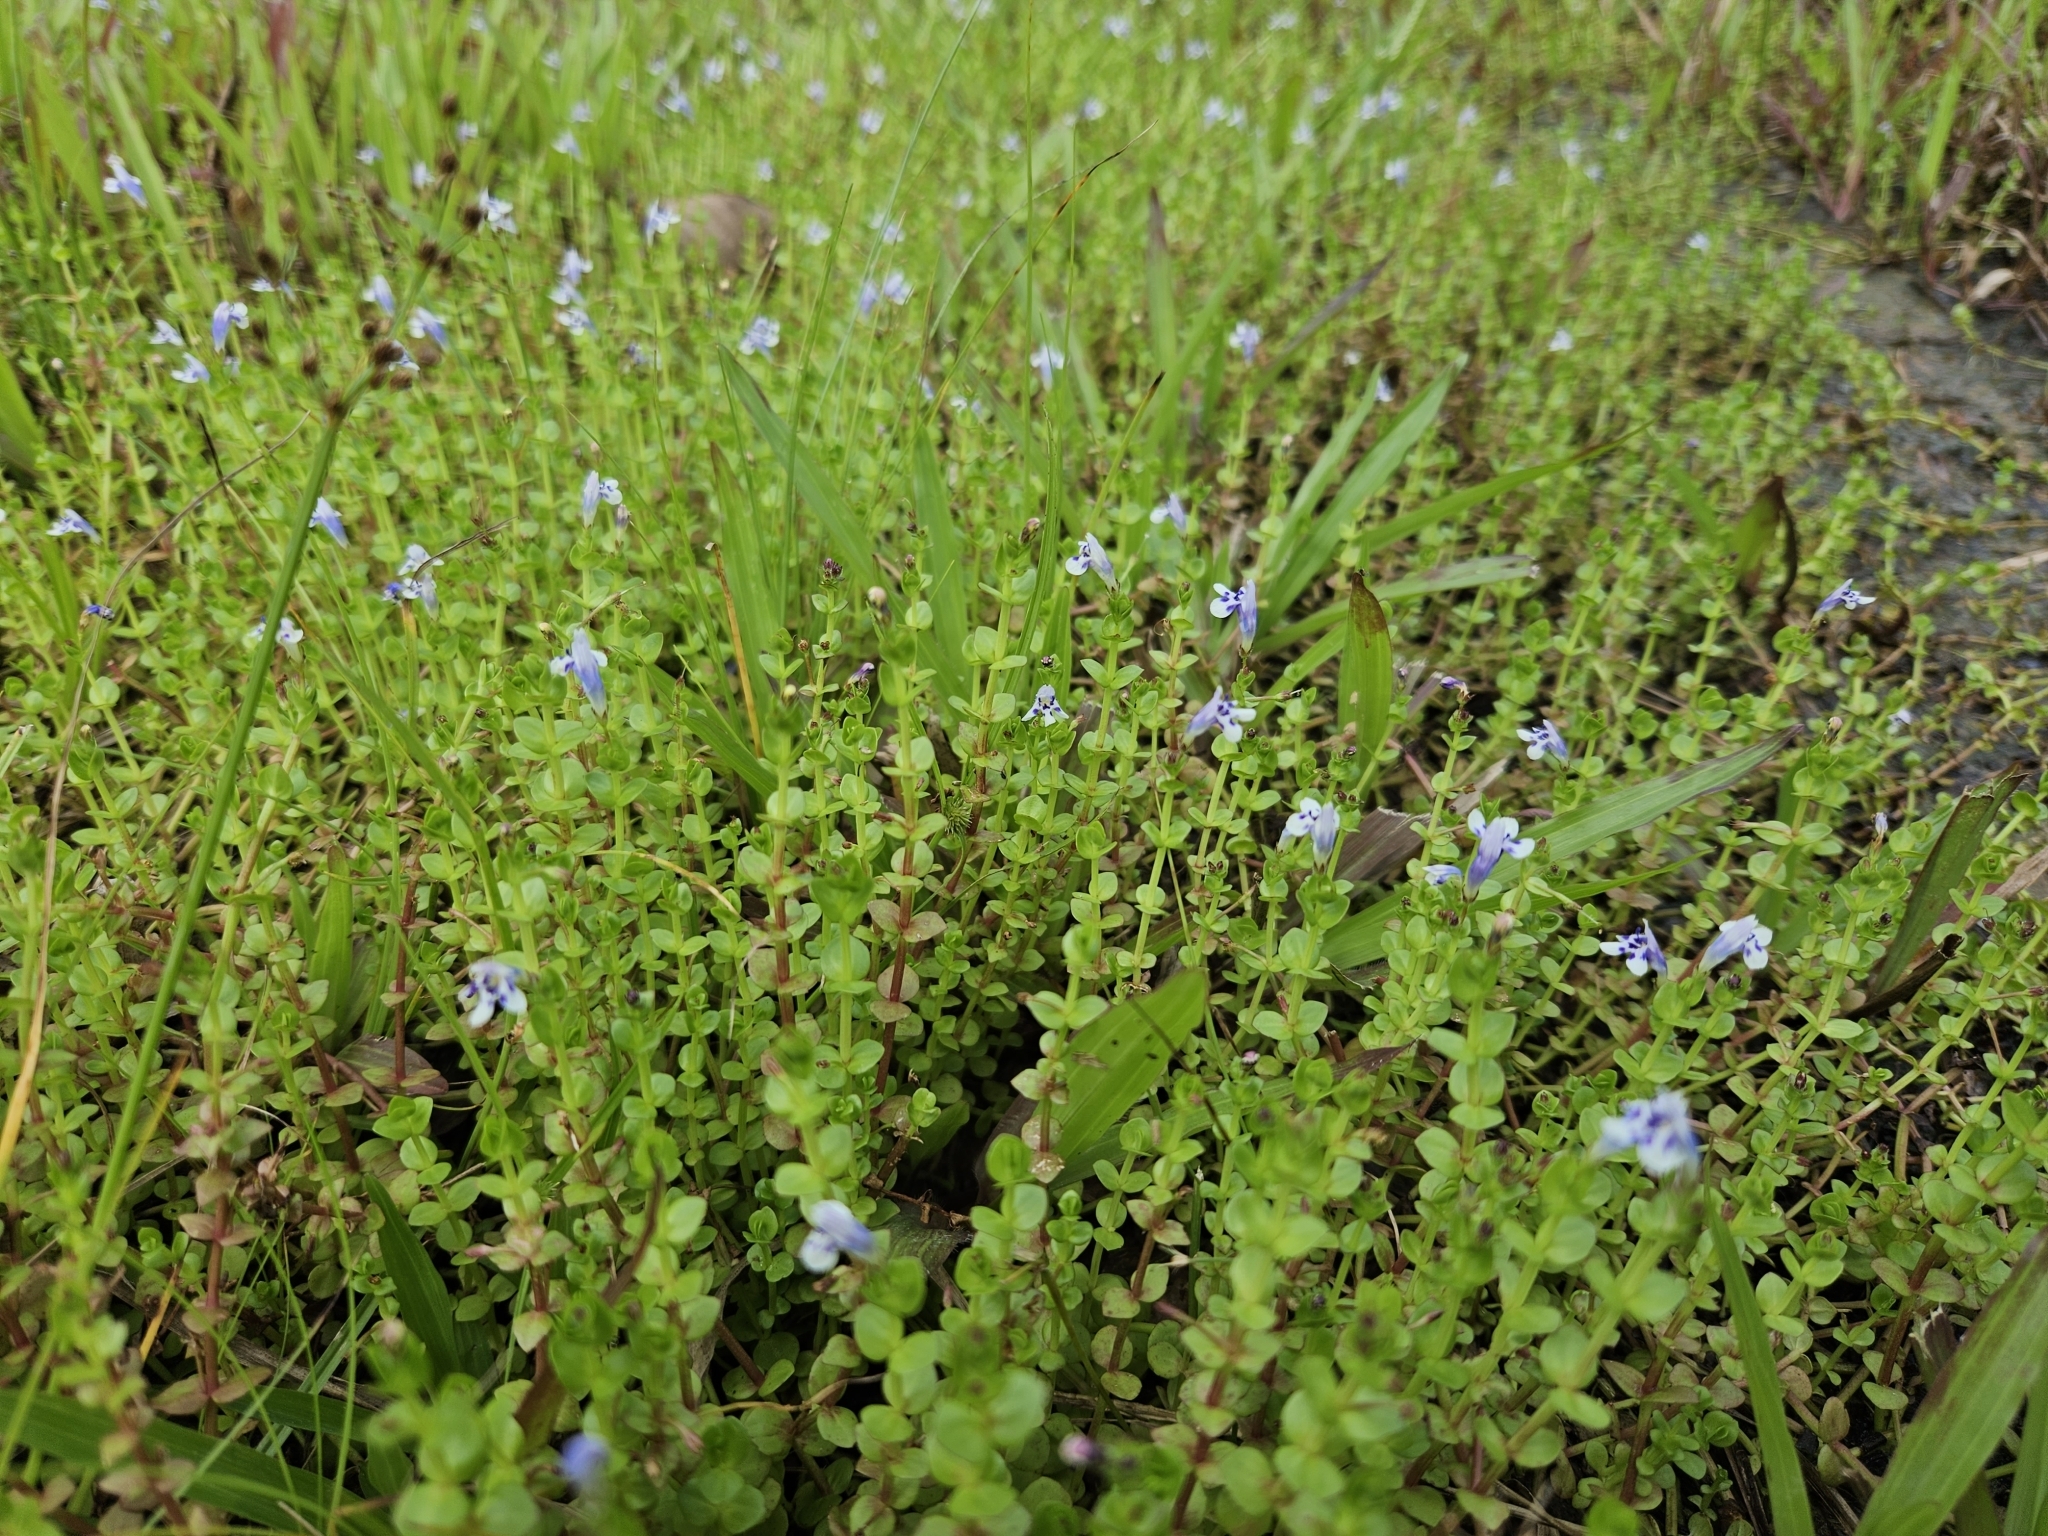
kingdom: Plantae
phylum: Tracheophyta
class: Magnoliopsida
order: Lamiales
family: Linderniaceae
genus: Lindernia
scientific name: Lindernia rotundifolia
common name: Baby’s tears
